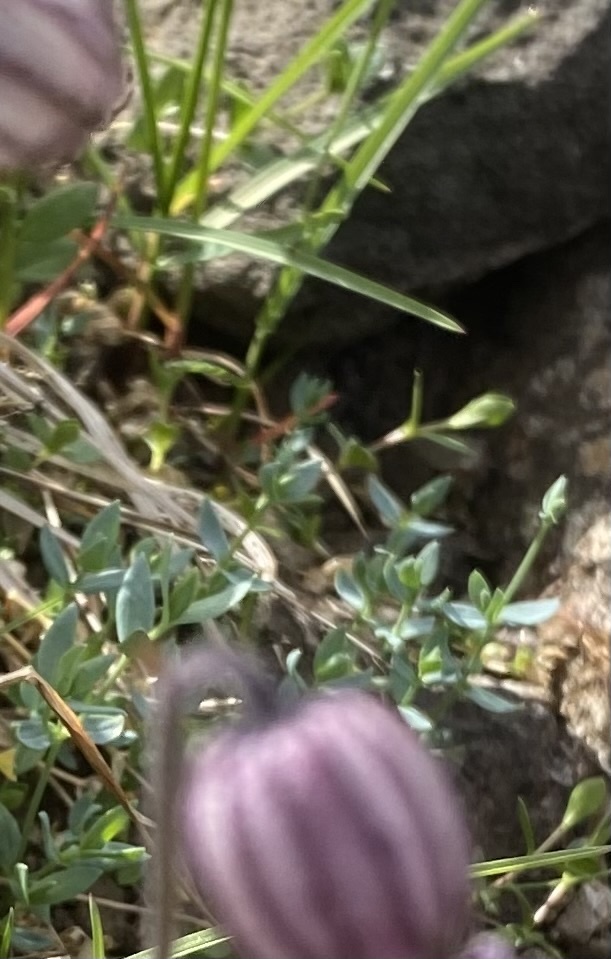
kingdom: Plantae
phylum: Tracheophyta
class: Magnoliopsida
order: Caryophyllales
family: Caryophyllaceae
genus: Stellaria
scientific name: Stellaria longipes
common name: Goldie's starwort
